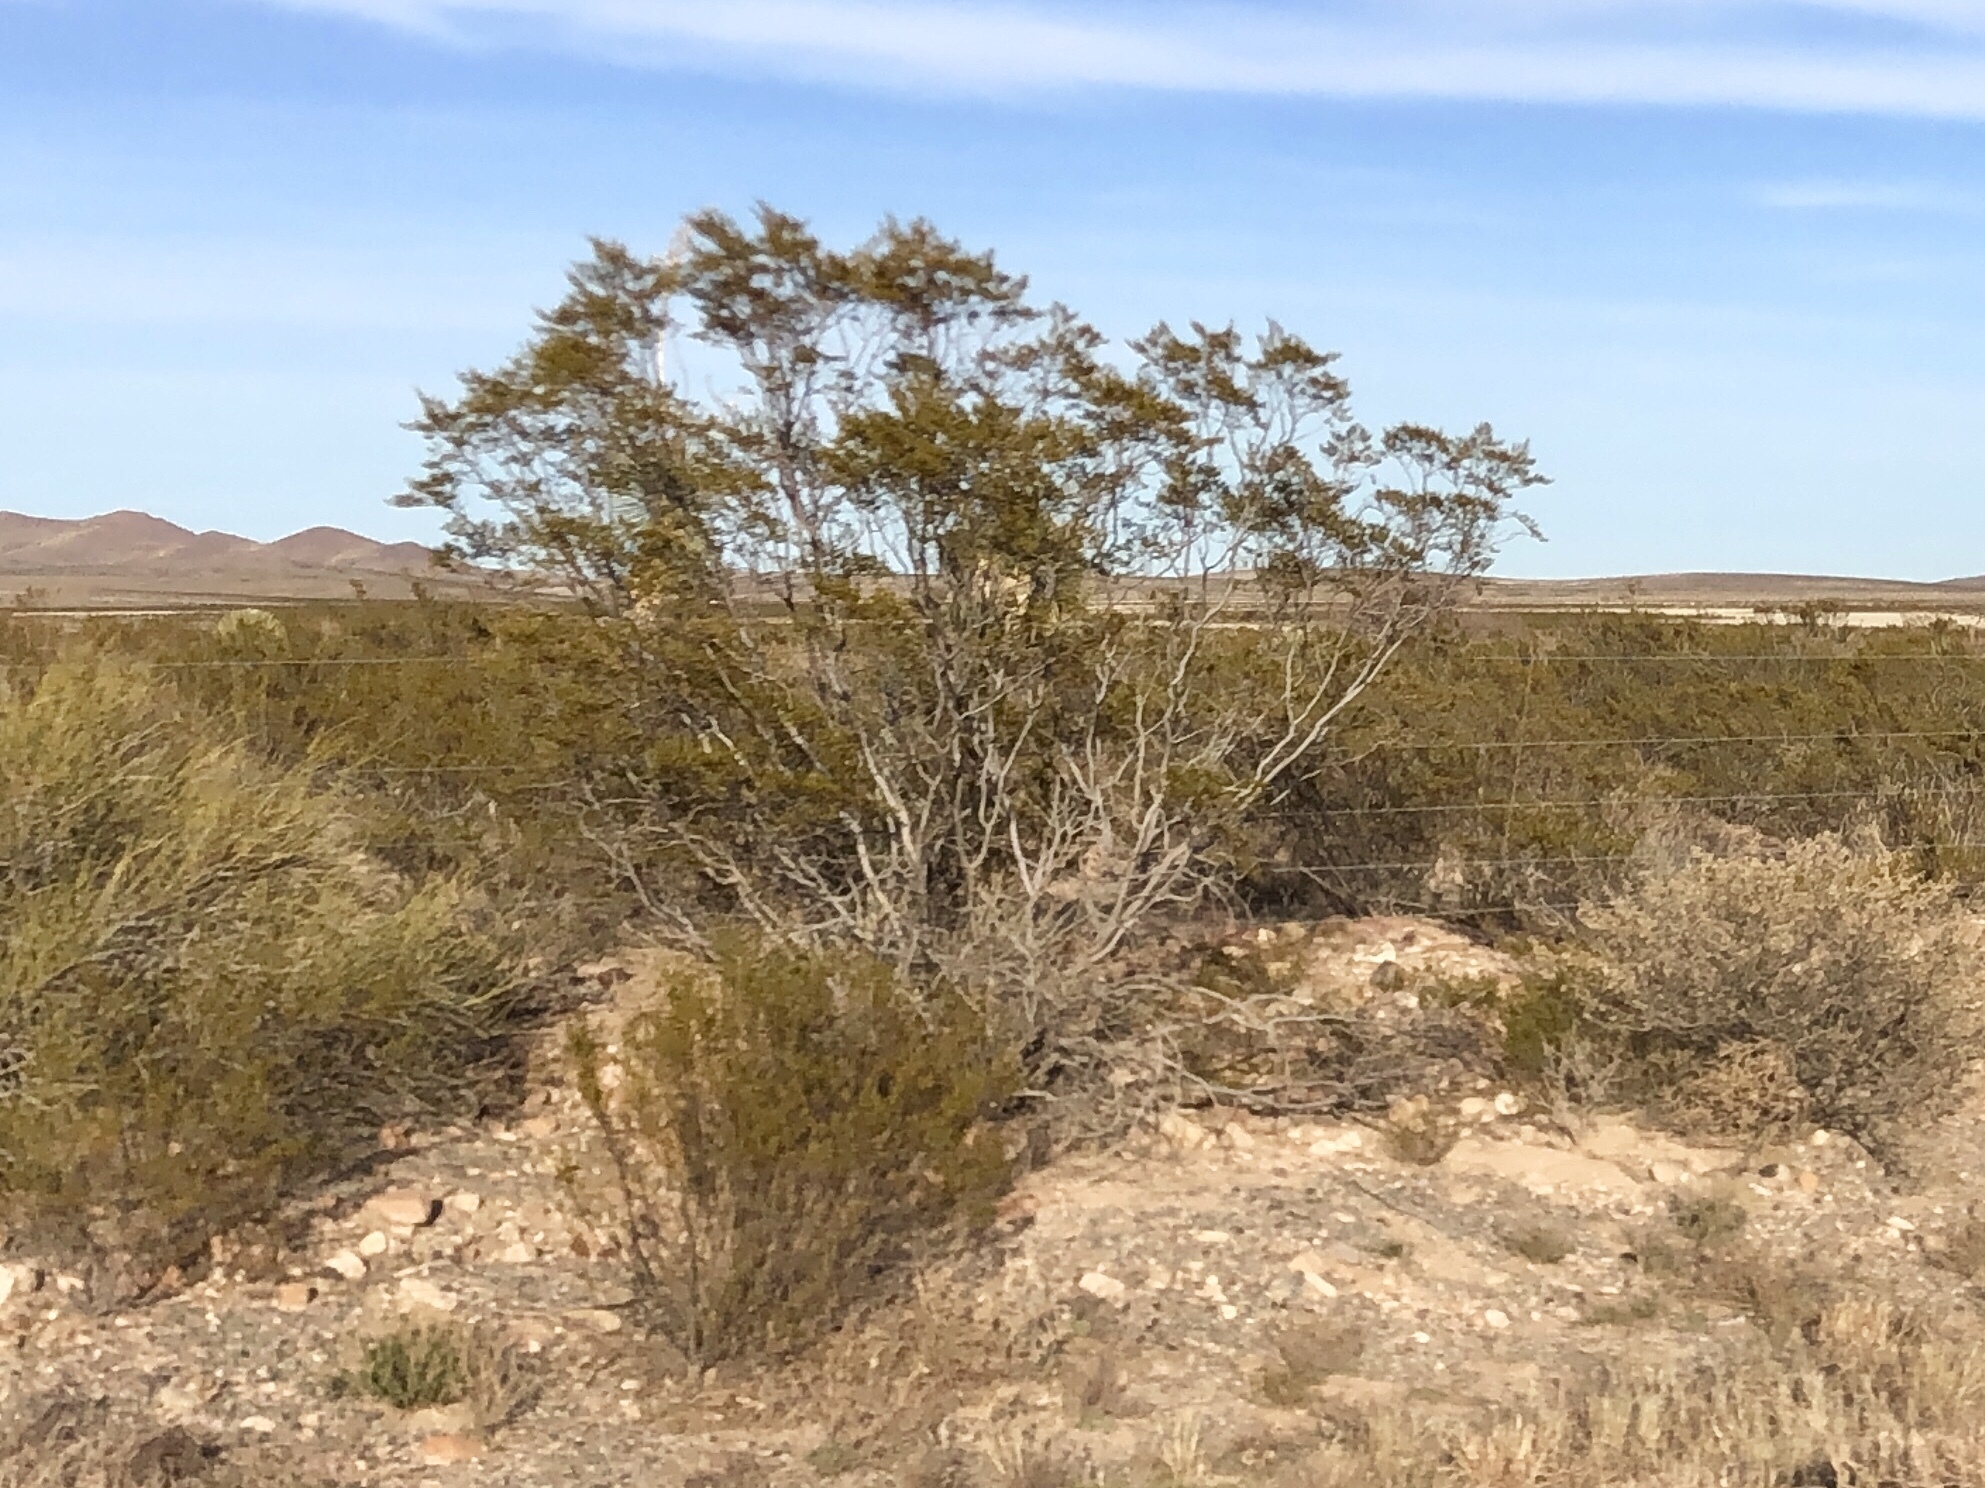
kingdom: Plantae
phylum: Tracheophyta
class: Magnoliopsida
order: Zygophyllales
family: Zygophyllaceae
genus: Larrea
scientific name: Larrea tridentata
